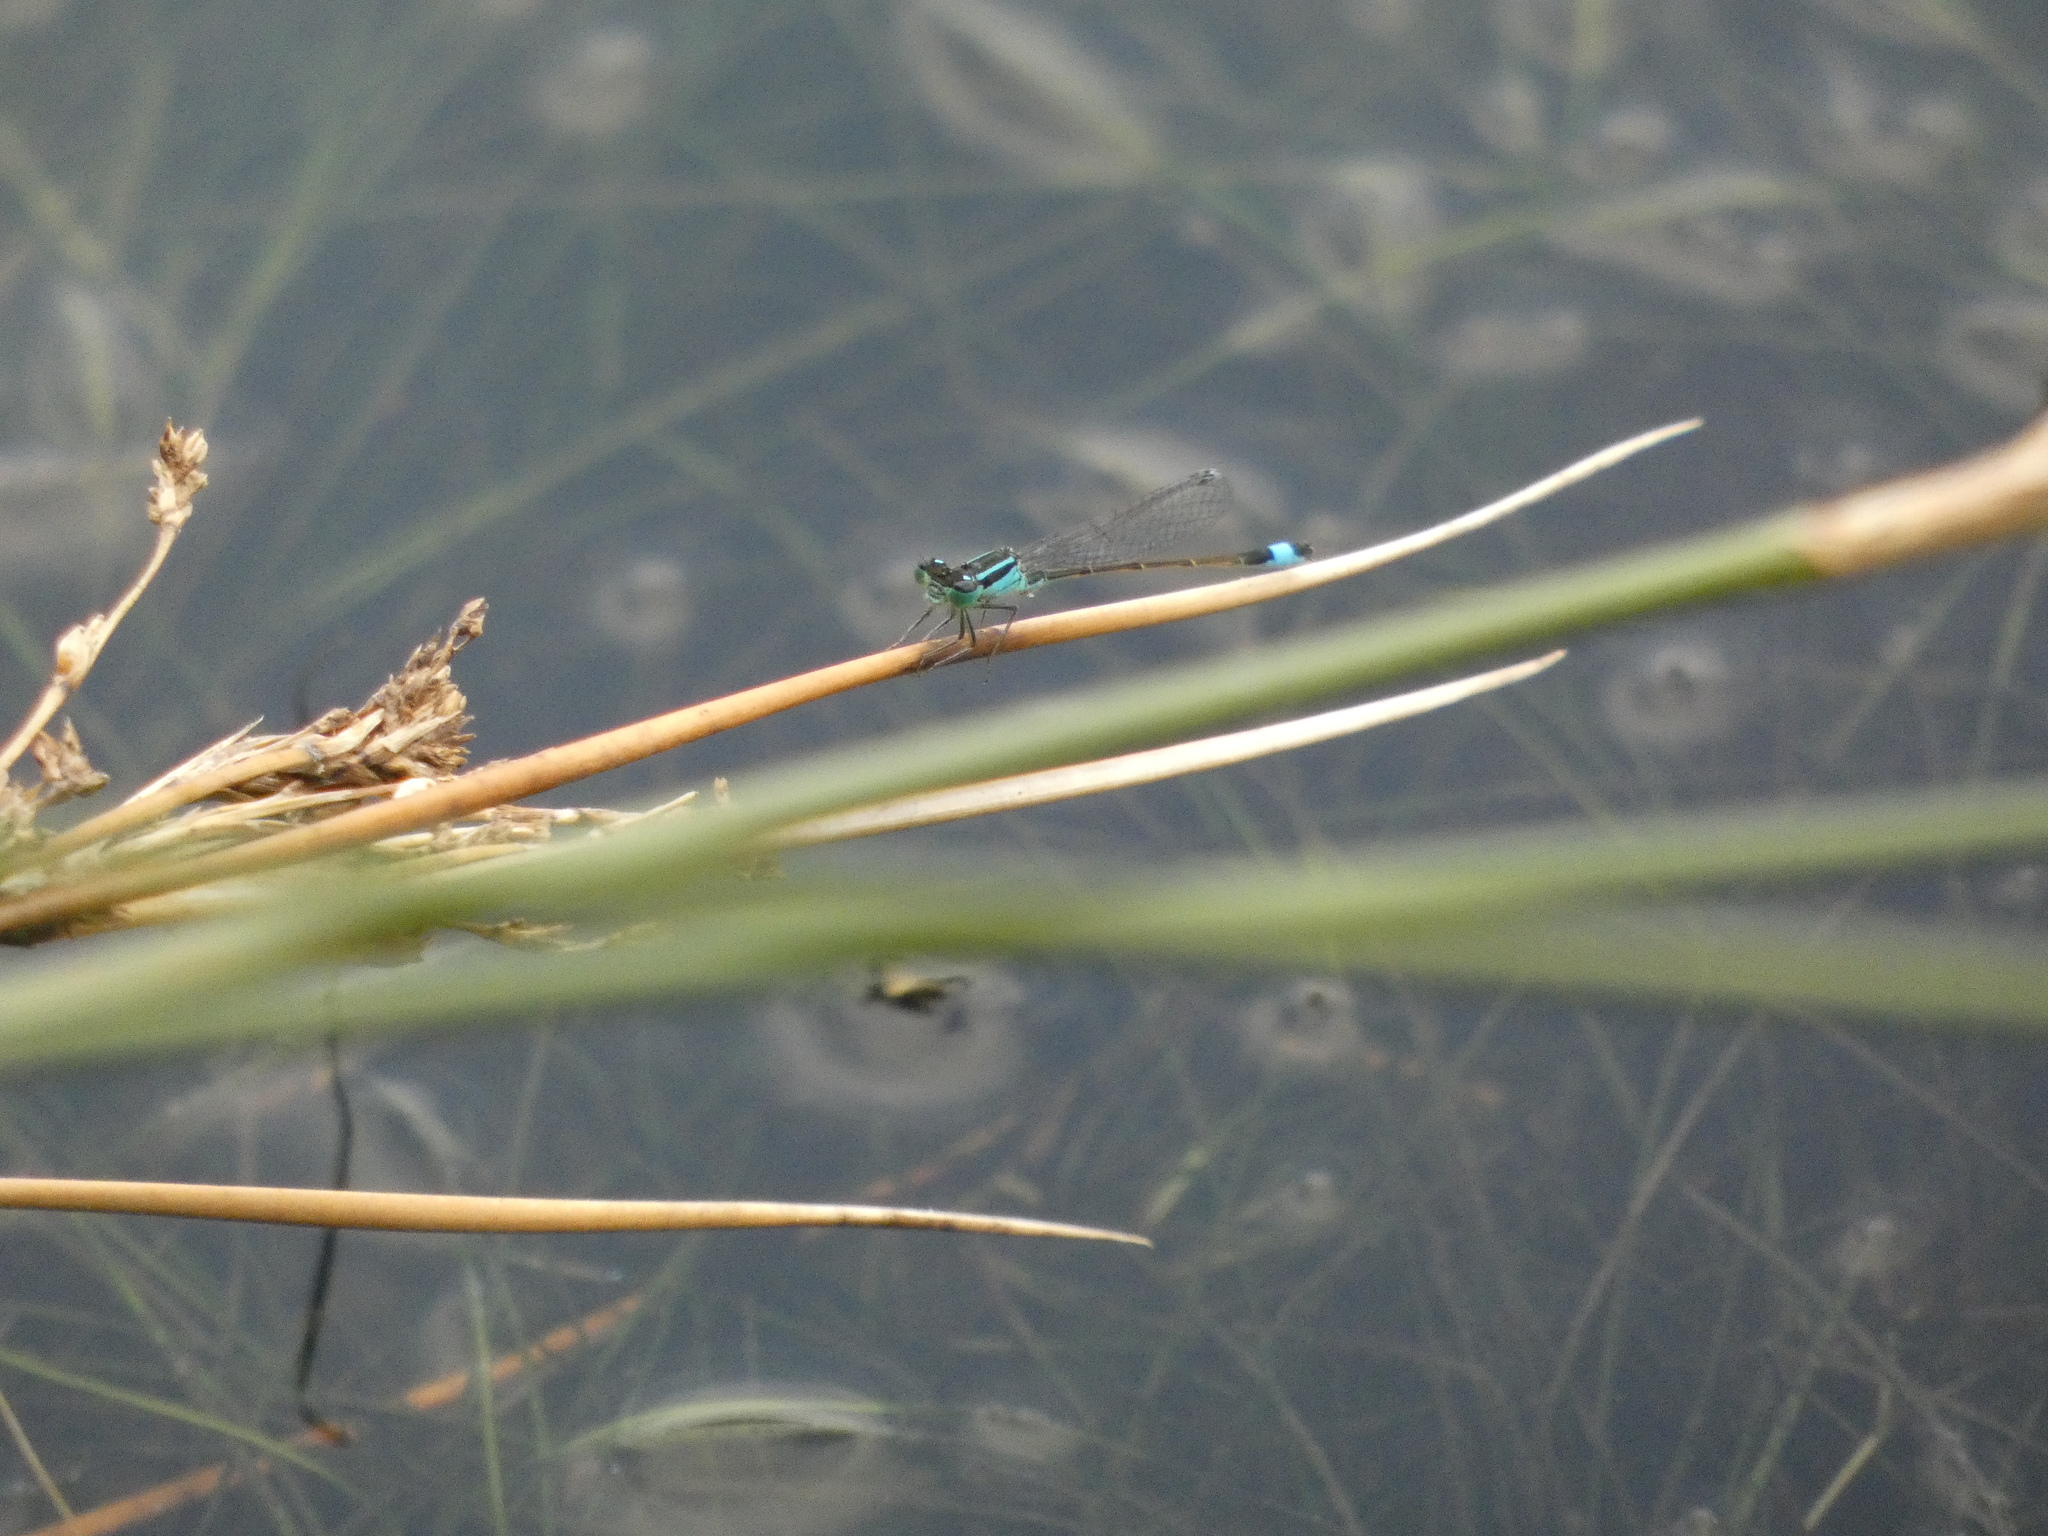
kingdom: Animalia
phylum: Arthropoda
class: Insecta
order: Odonata
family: Coenagrionidae
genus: Ischnura
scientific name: Ischnura elegans
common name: Blue-tailed damselfly
